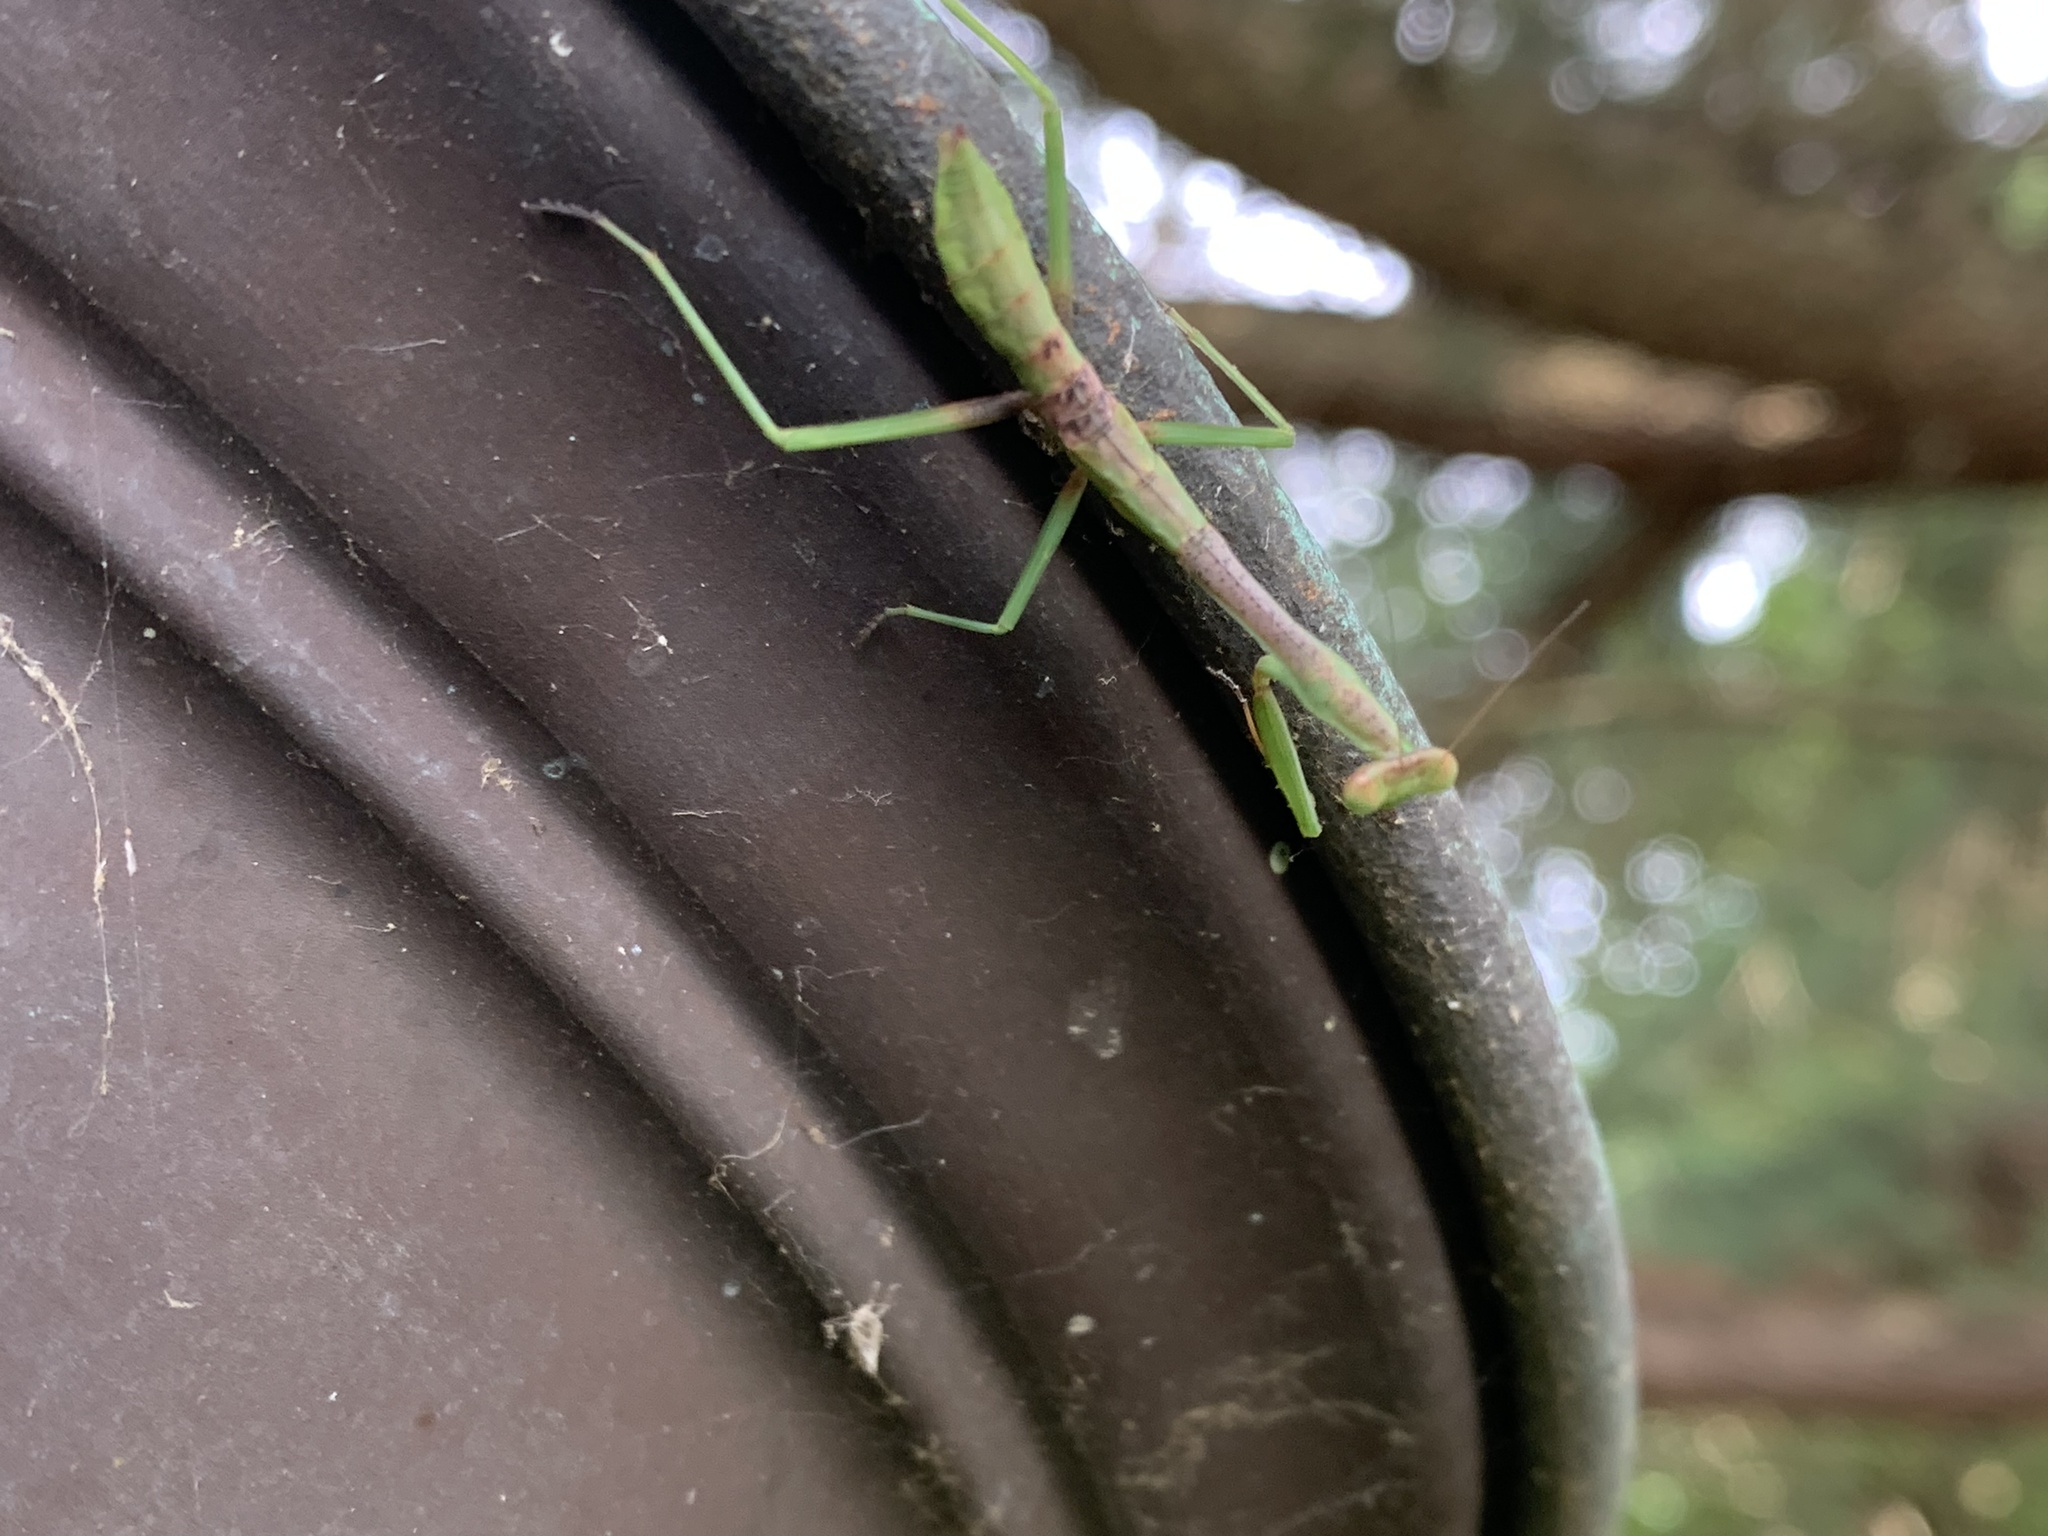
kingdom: Animalia
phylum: Arthropoda
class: Insecta
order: Mantodea
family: Mantidae
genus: Stagmomantis
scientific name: Stagmomantis carolina
